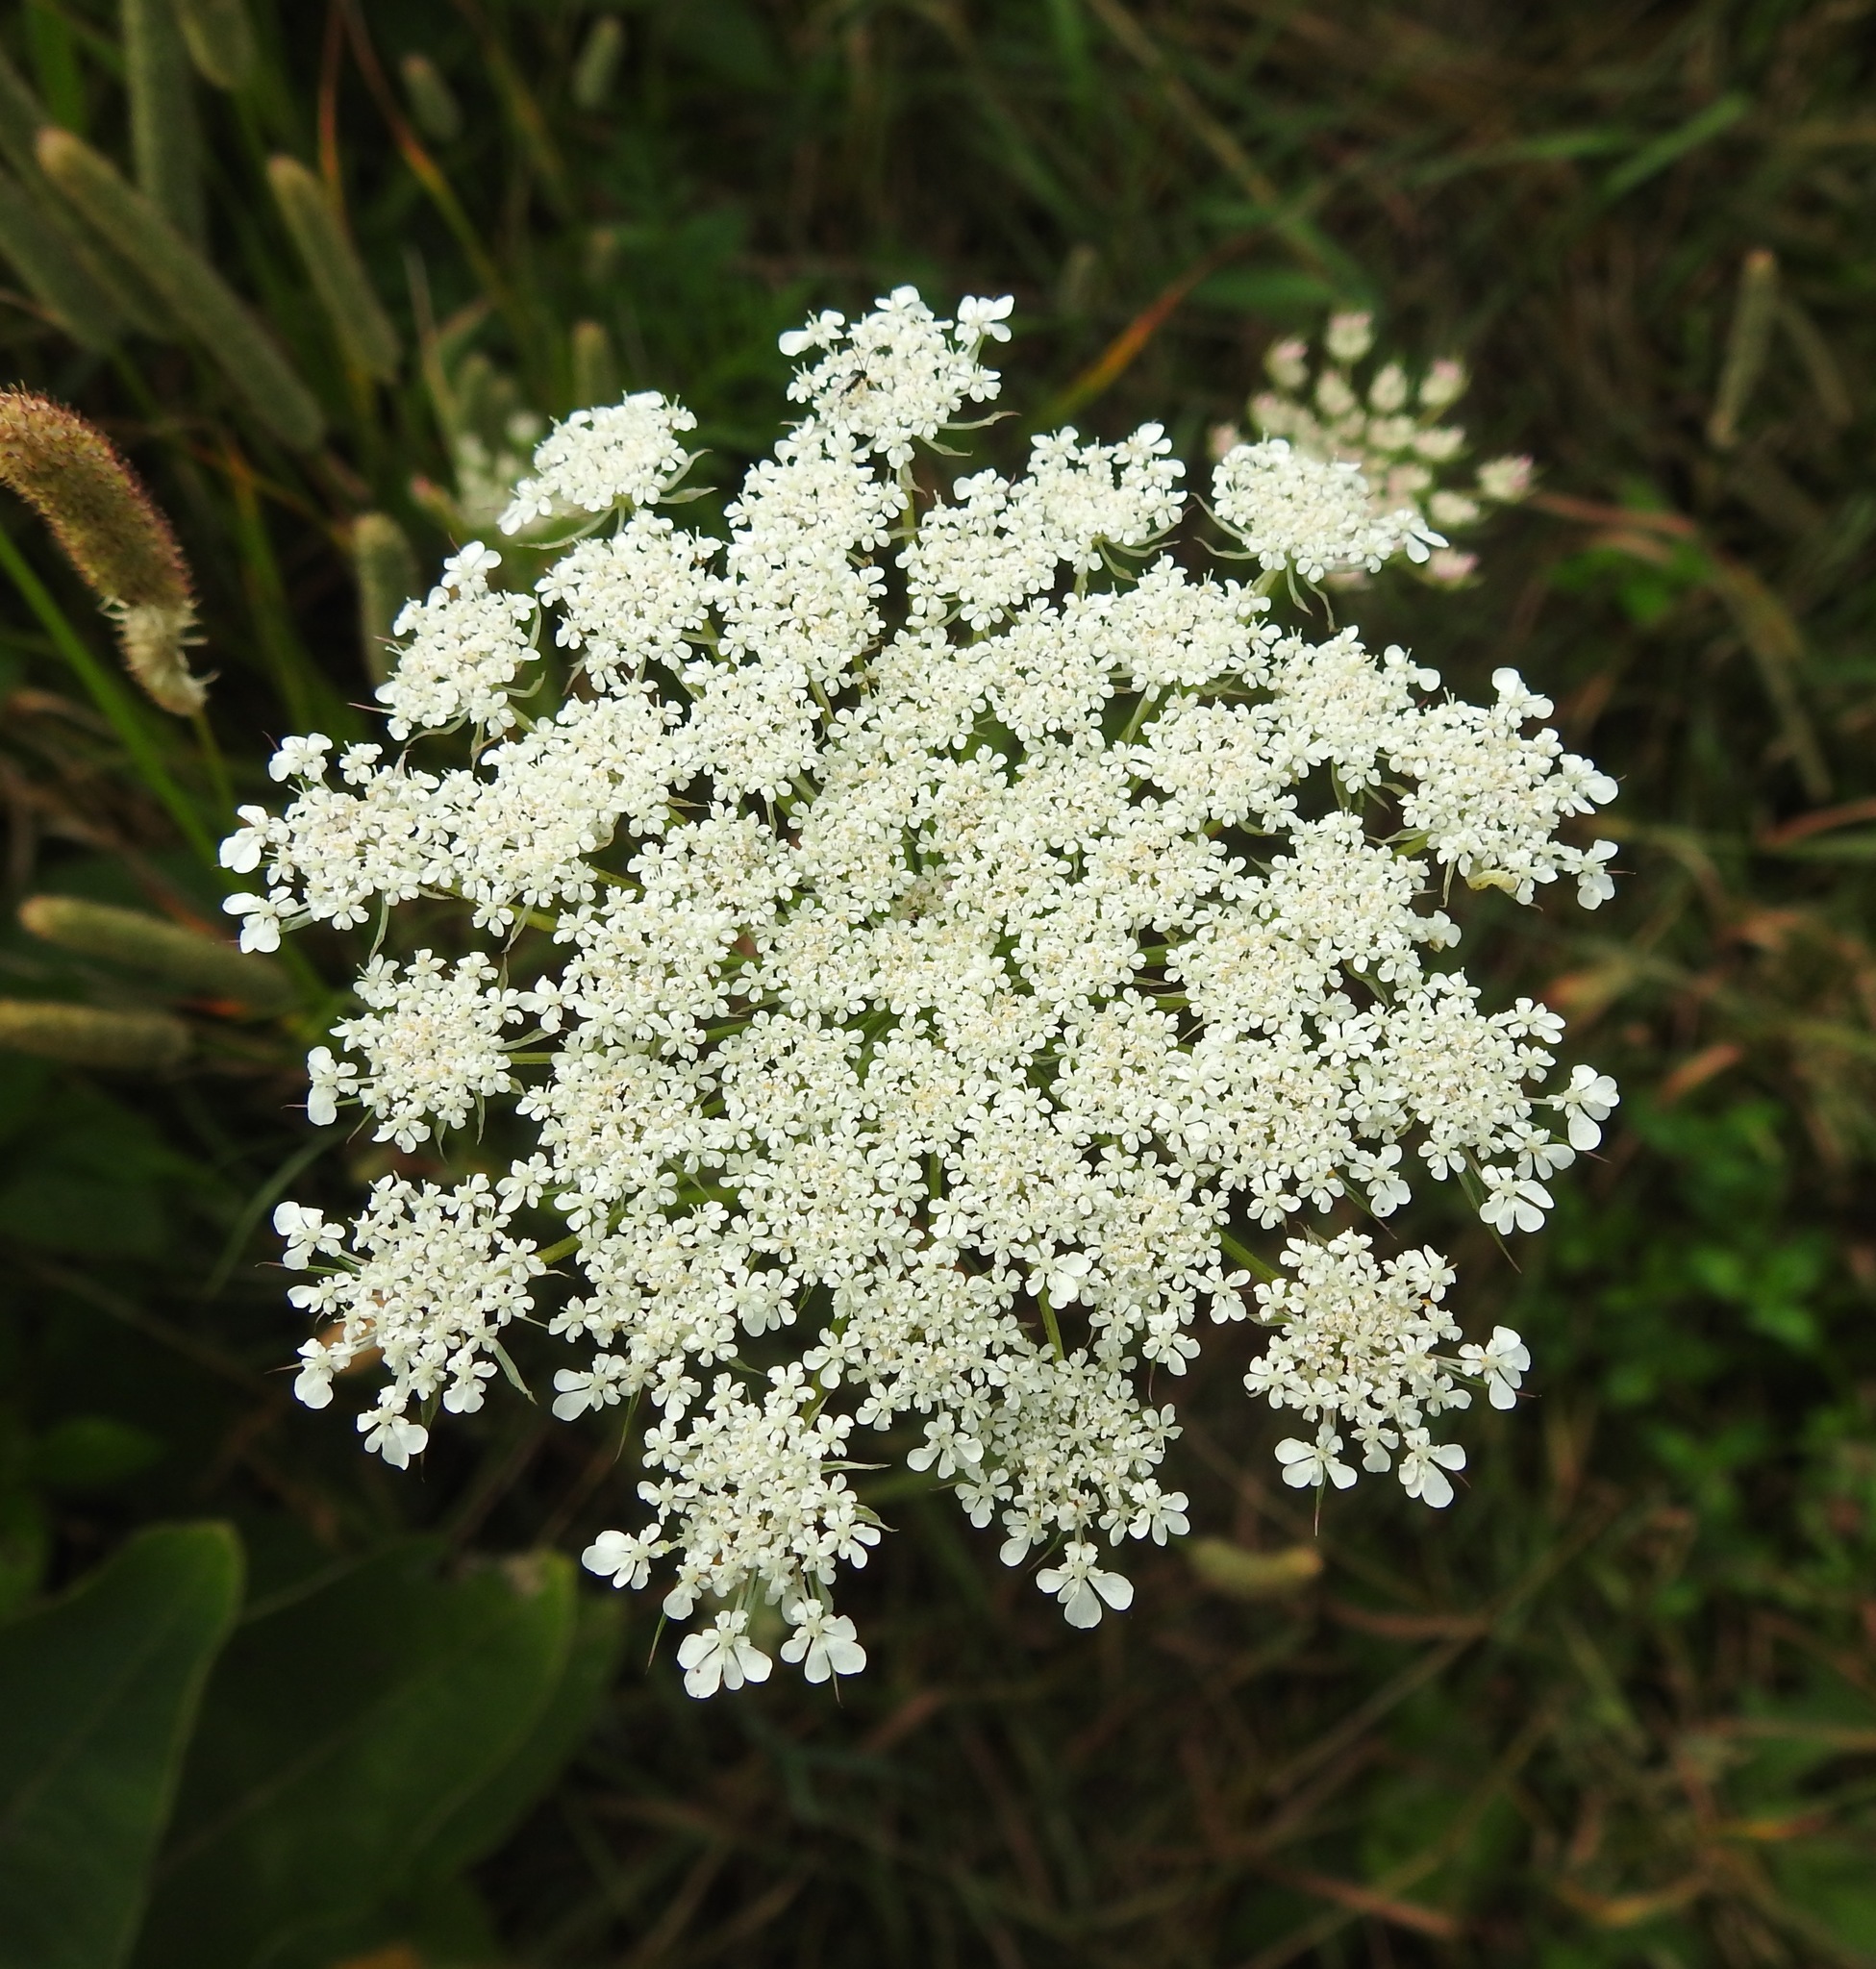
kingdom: Plantae
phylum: Tracheophyta
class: Magnoliopsida
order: Apiales
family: Apiaceae
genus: Daucus
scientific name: Daucus carota
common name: Wild carrot
